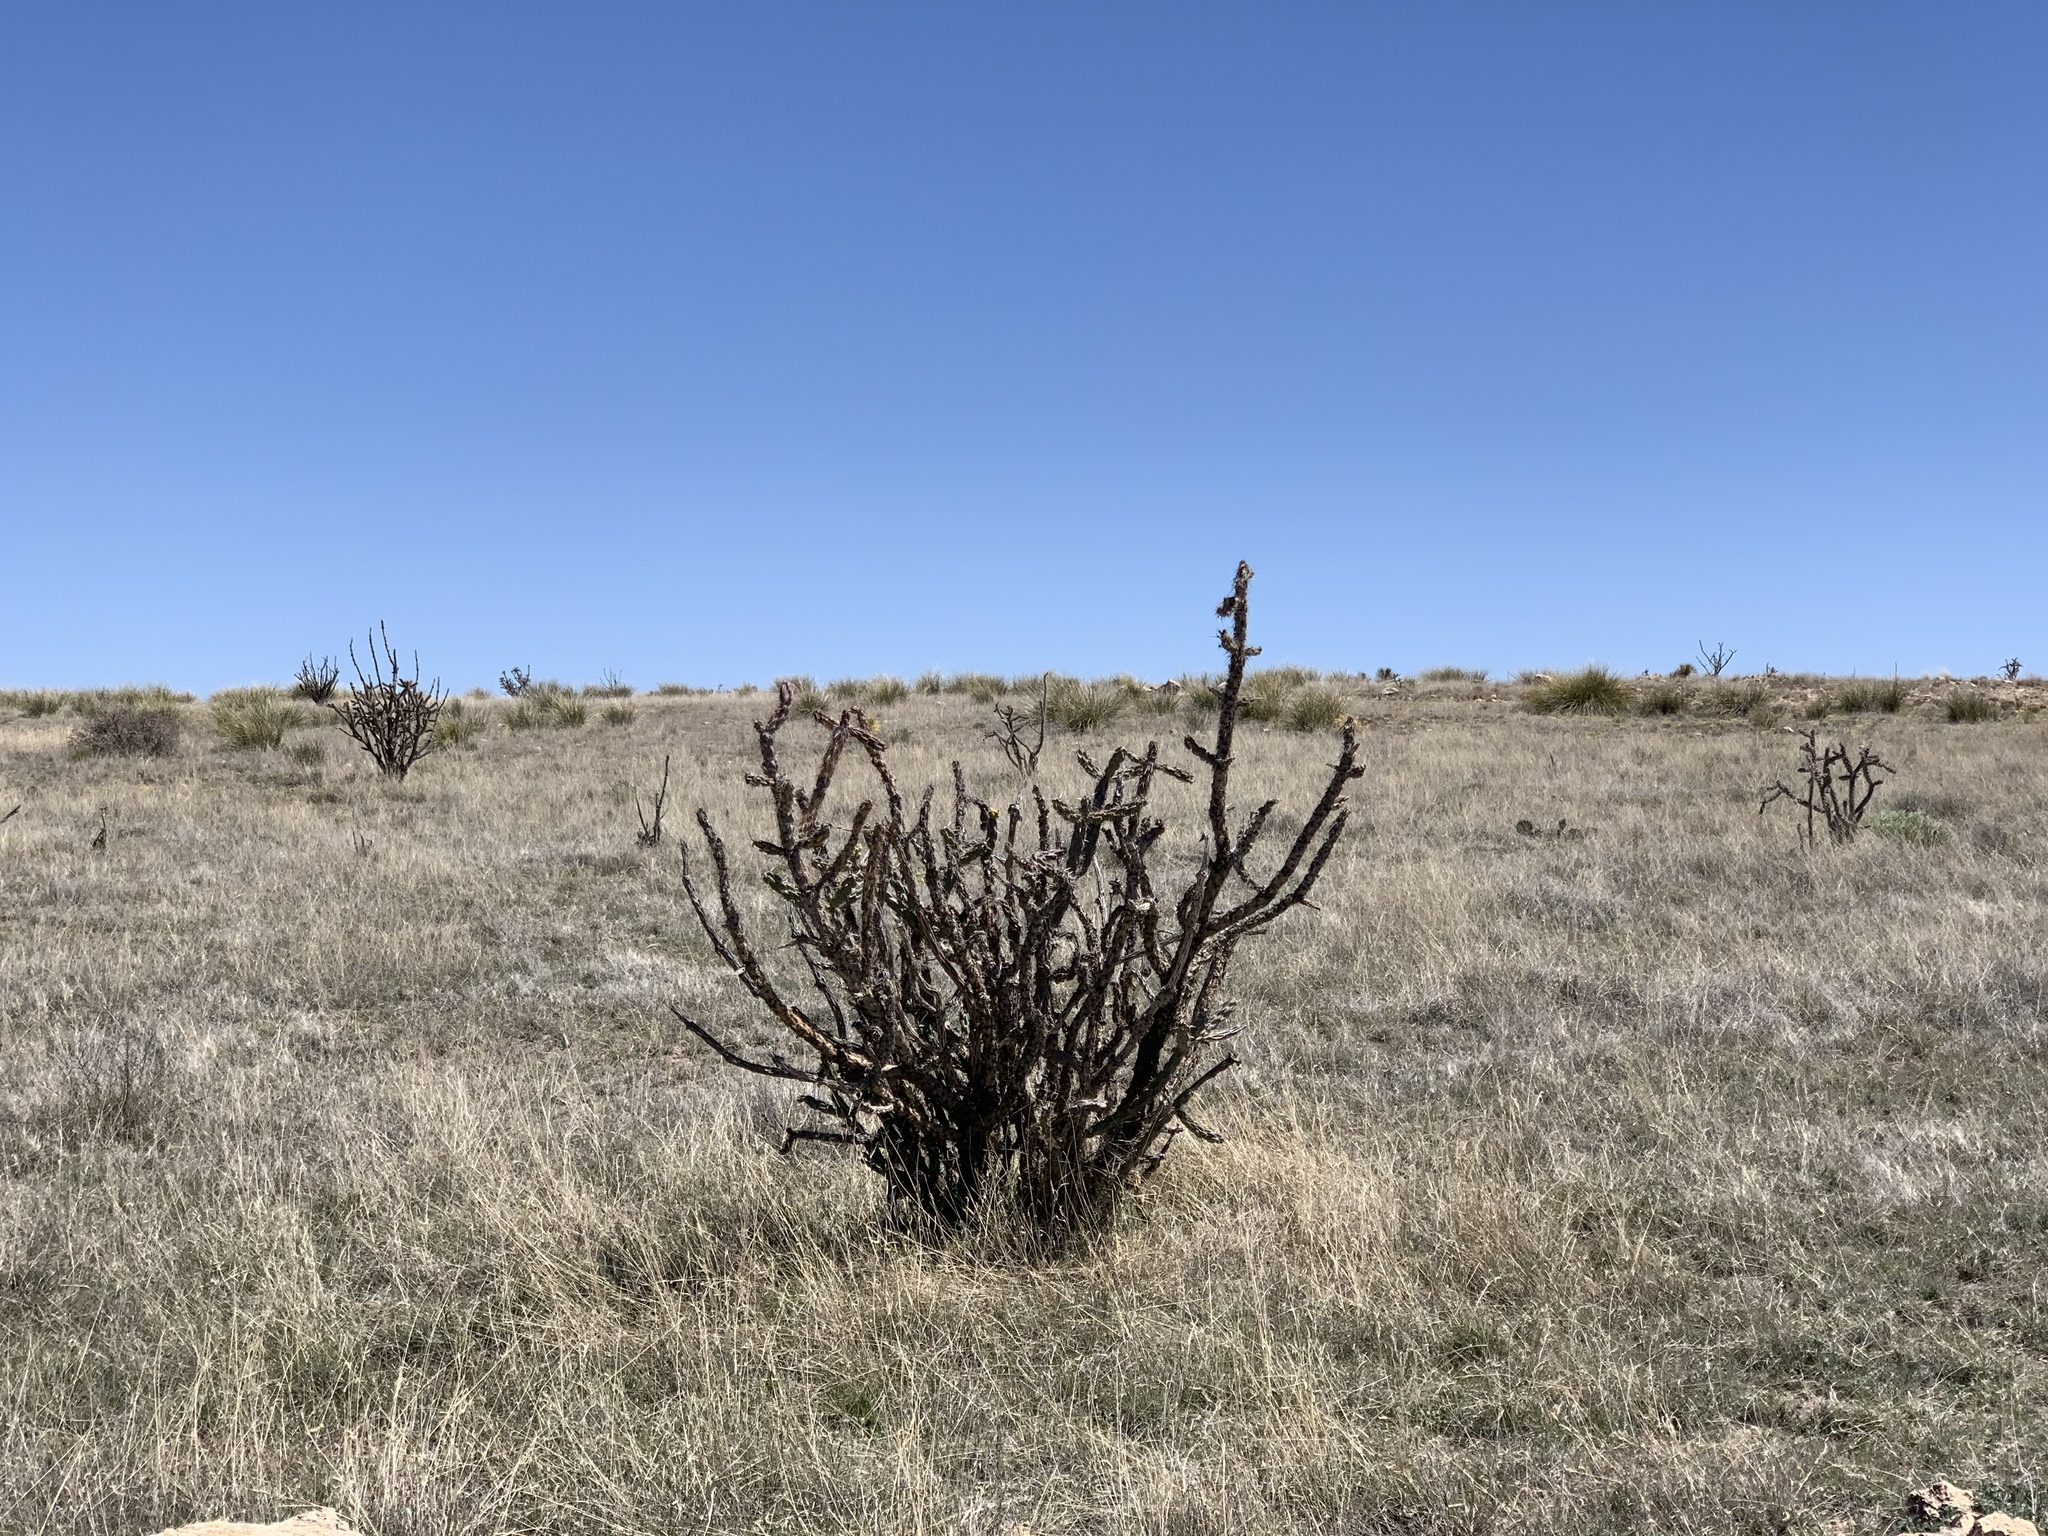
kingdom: Plantae
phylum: Tracheophyta
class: Magnoliopsida
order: Caryophyllales
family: Cactaceae
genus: Cylindropuntia
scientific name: Cylindropuntia imbricata
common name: Candelabrum cactus
